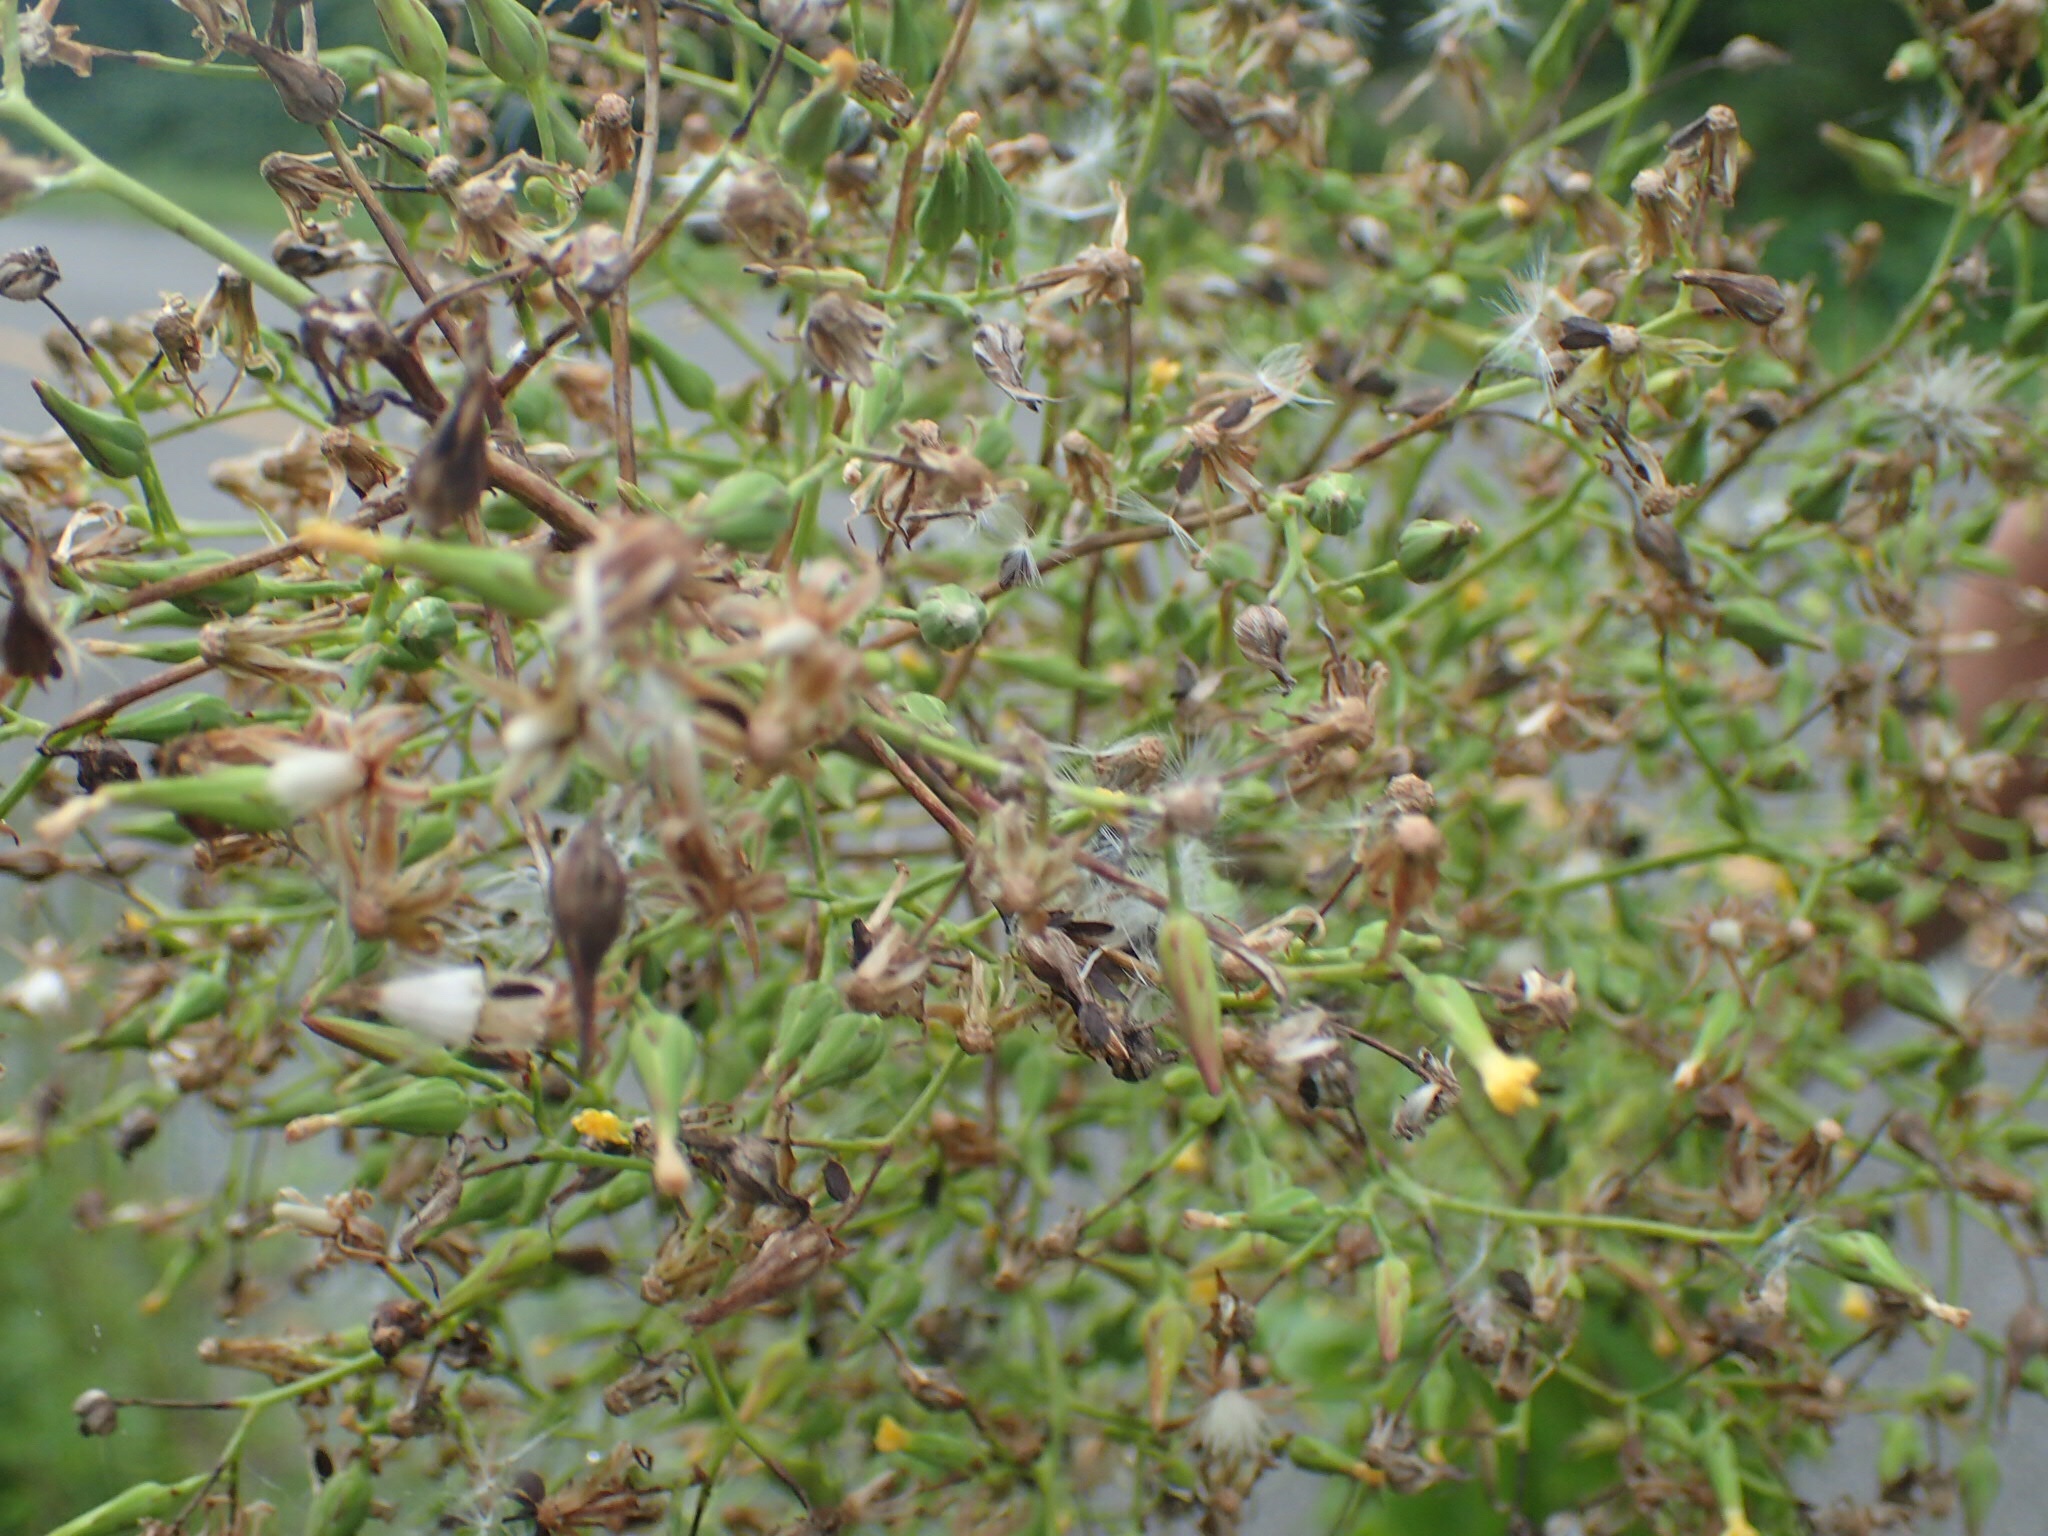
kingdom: Plantae
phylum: Tracheophyta
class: Magnoliopsida
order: Asterales
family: Asteraceae
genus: Lactuca
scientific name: Lactuca canadensis
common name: Canada lettuce
